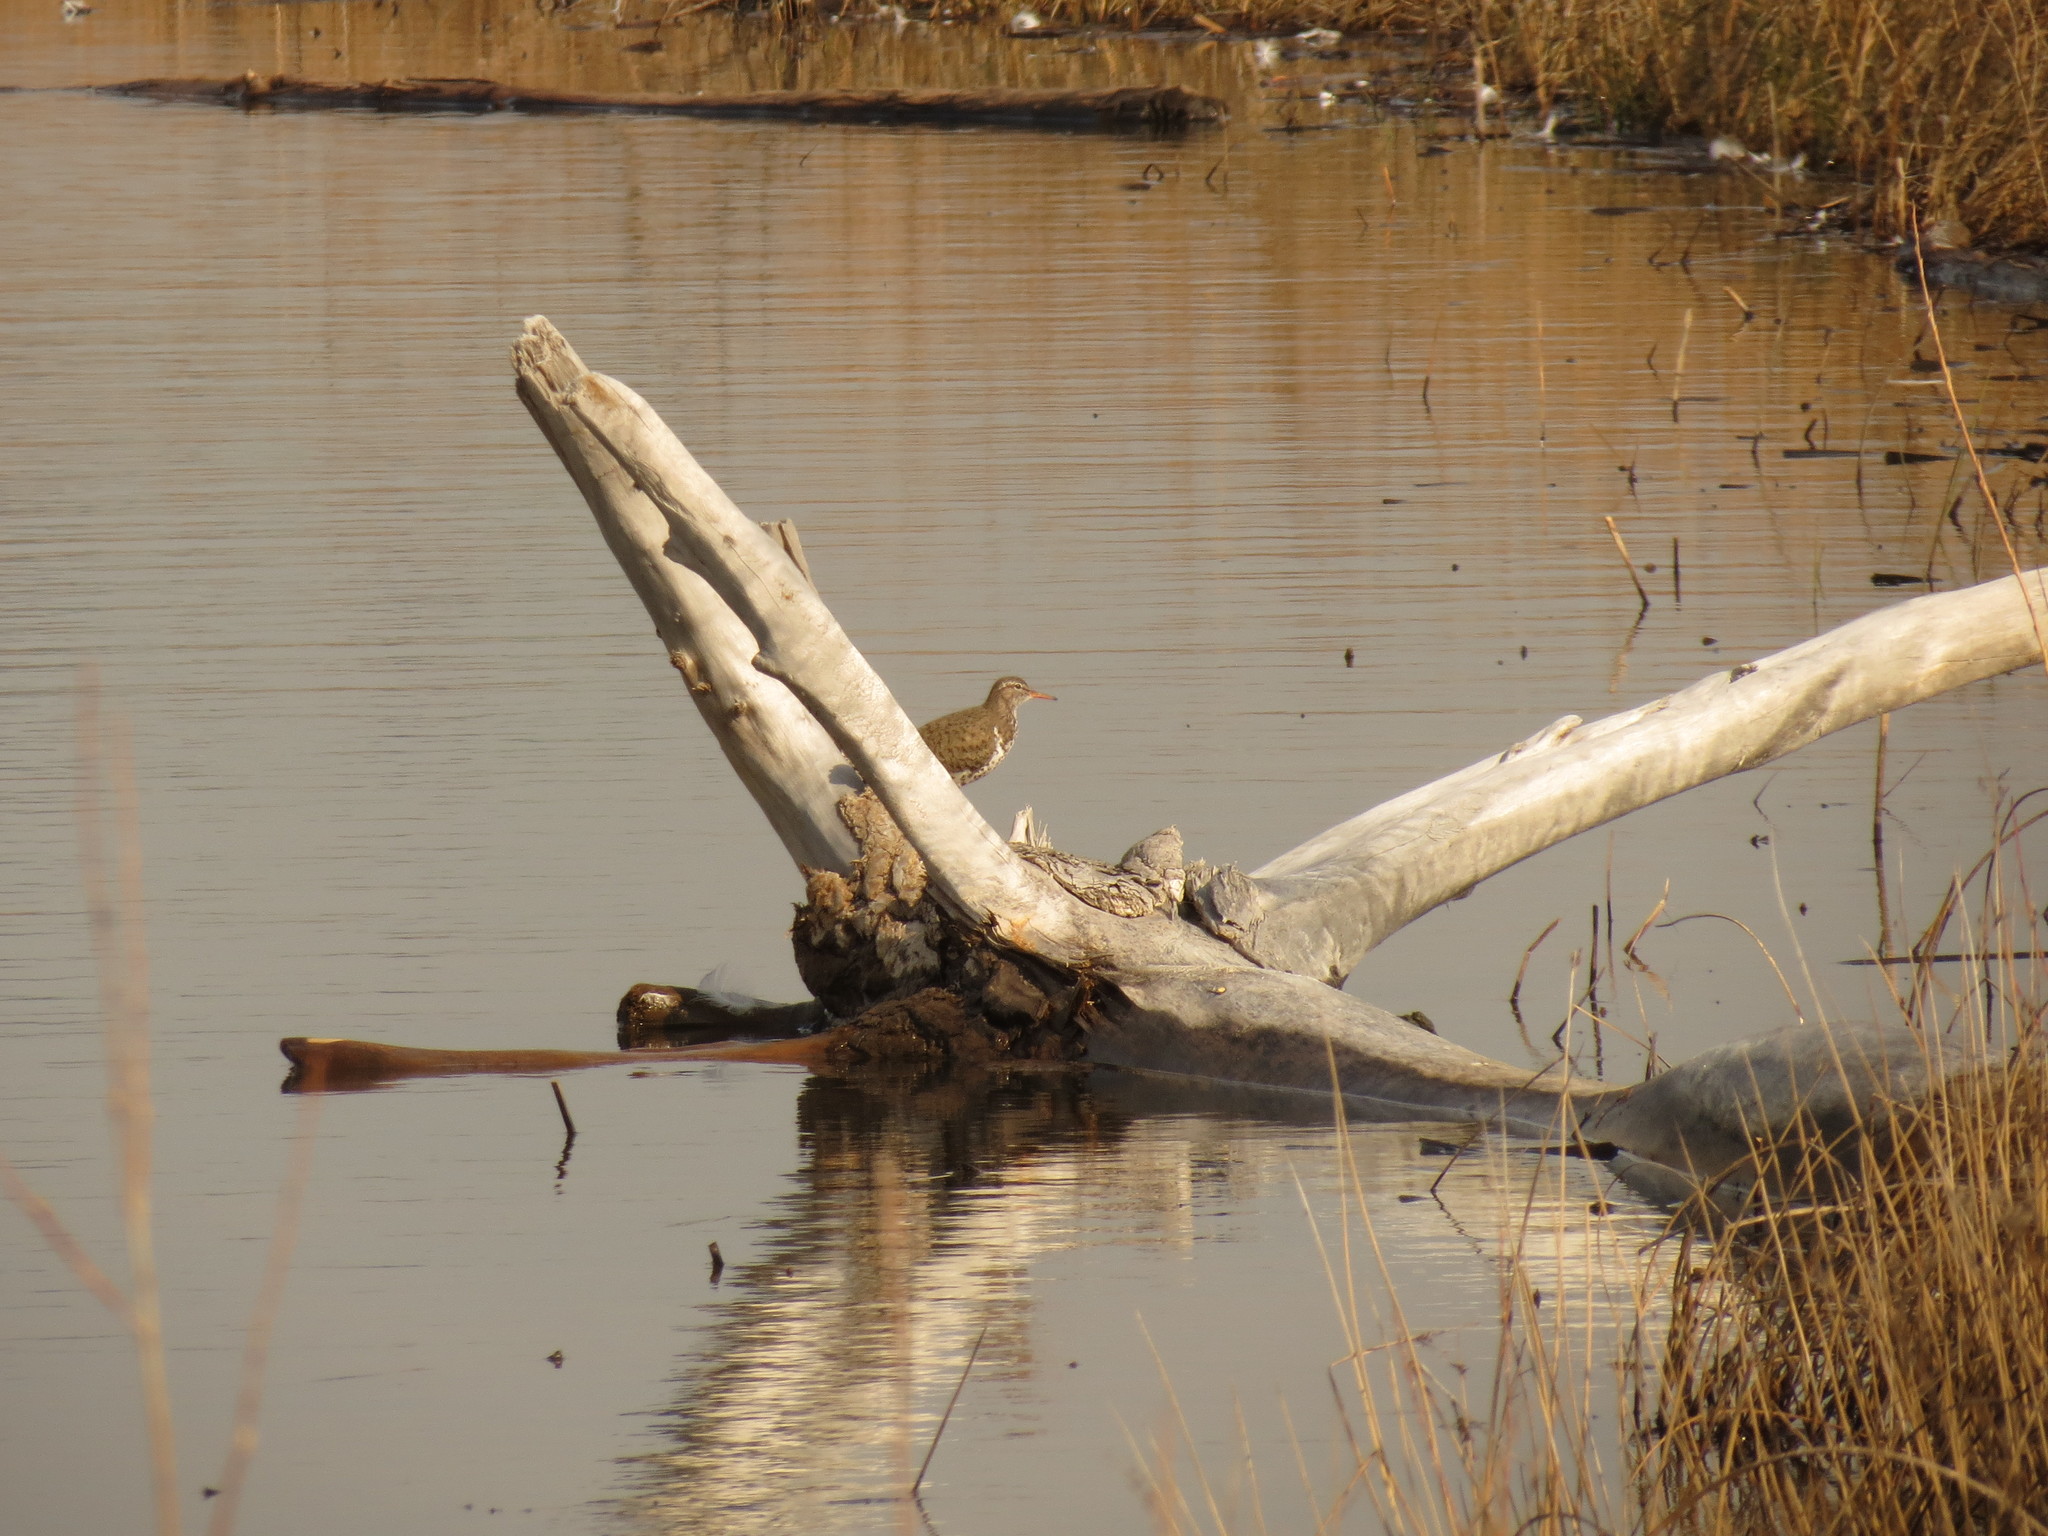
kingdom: Animalia
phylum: Chordata
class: Aves
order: Charadriiformes
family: Scolopacidae
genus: Actitis
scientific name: Actitis macularius
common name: Spotted sandpiper
